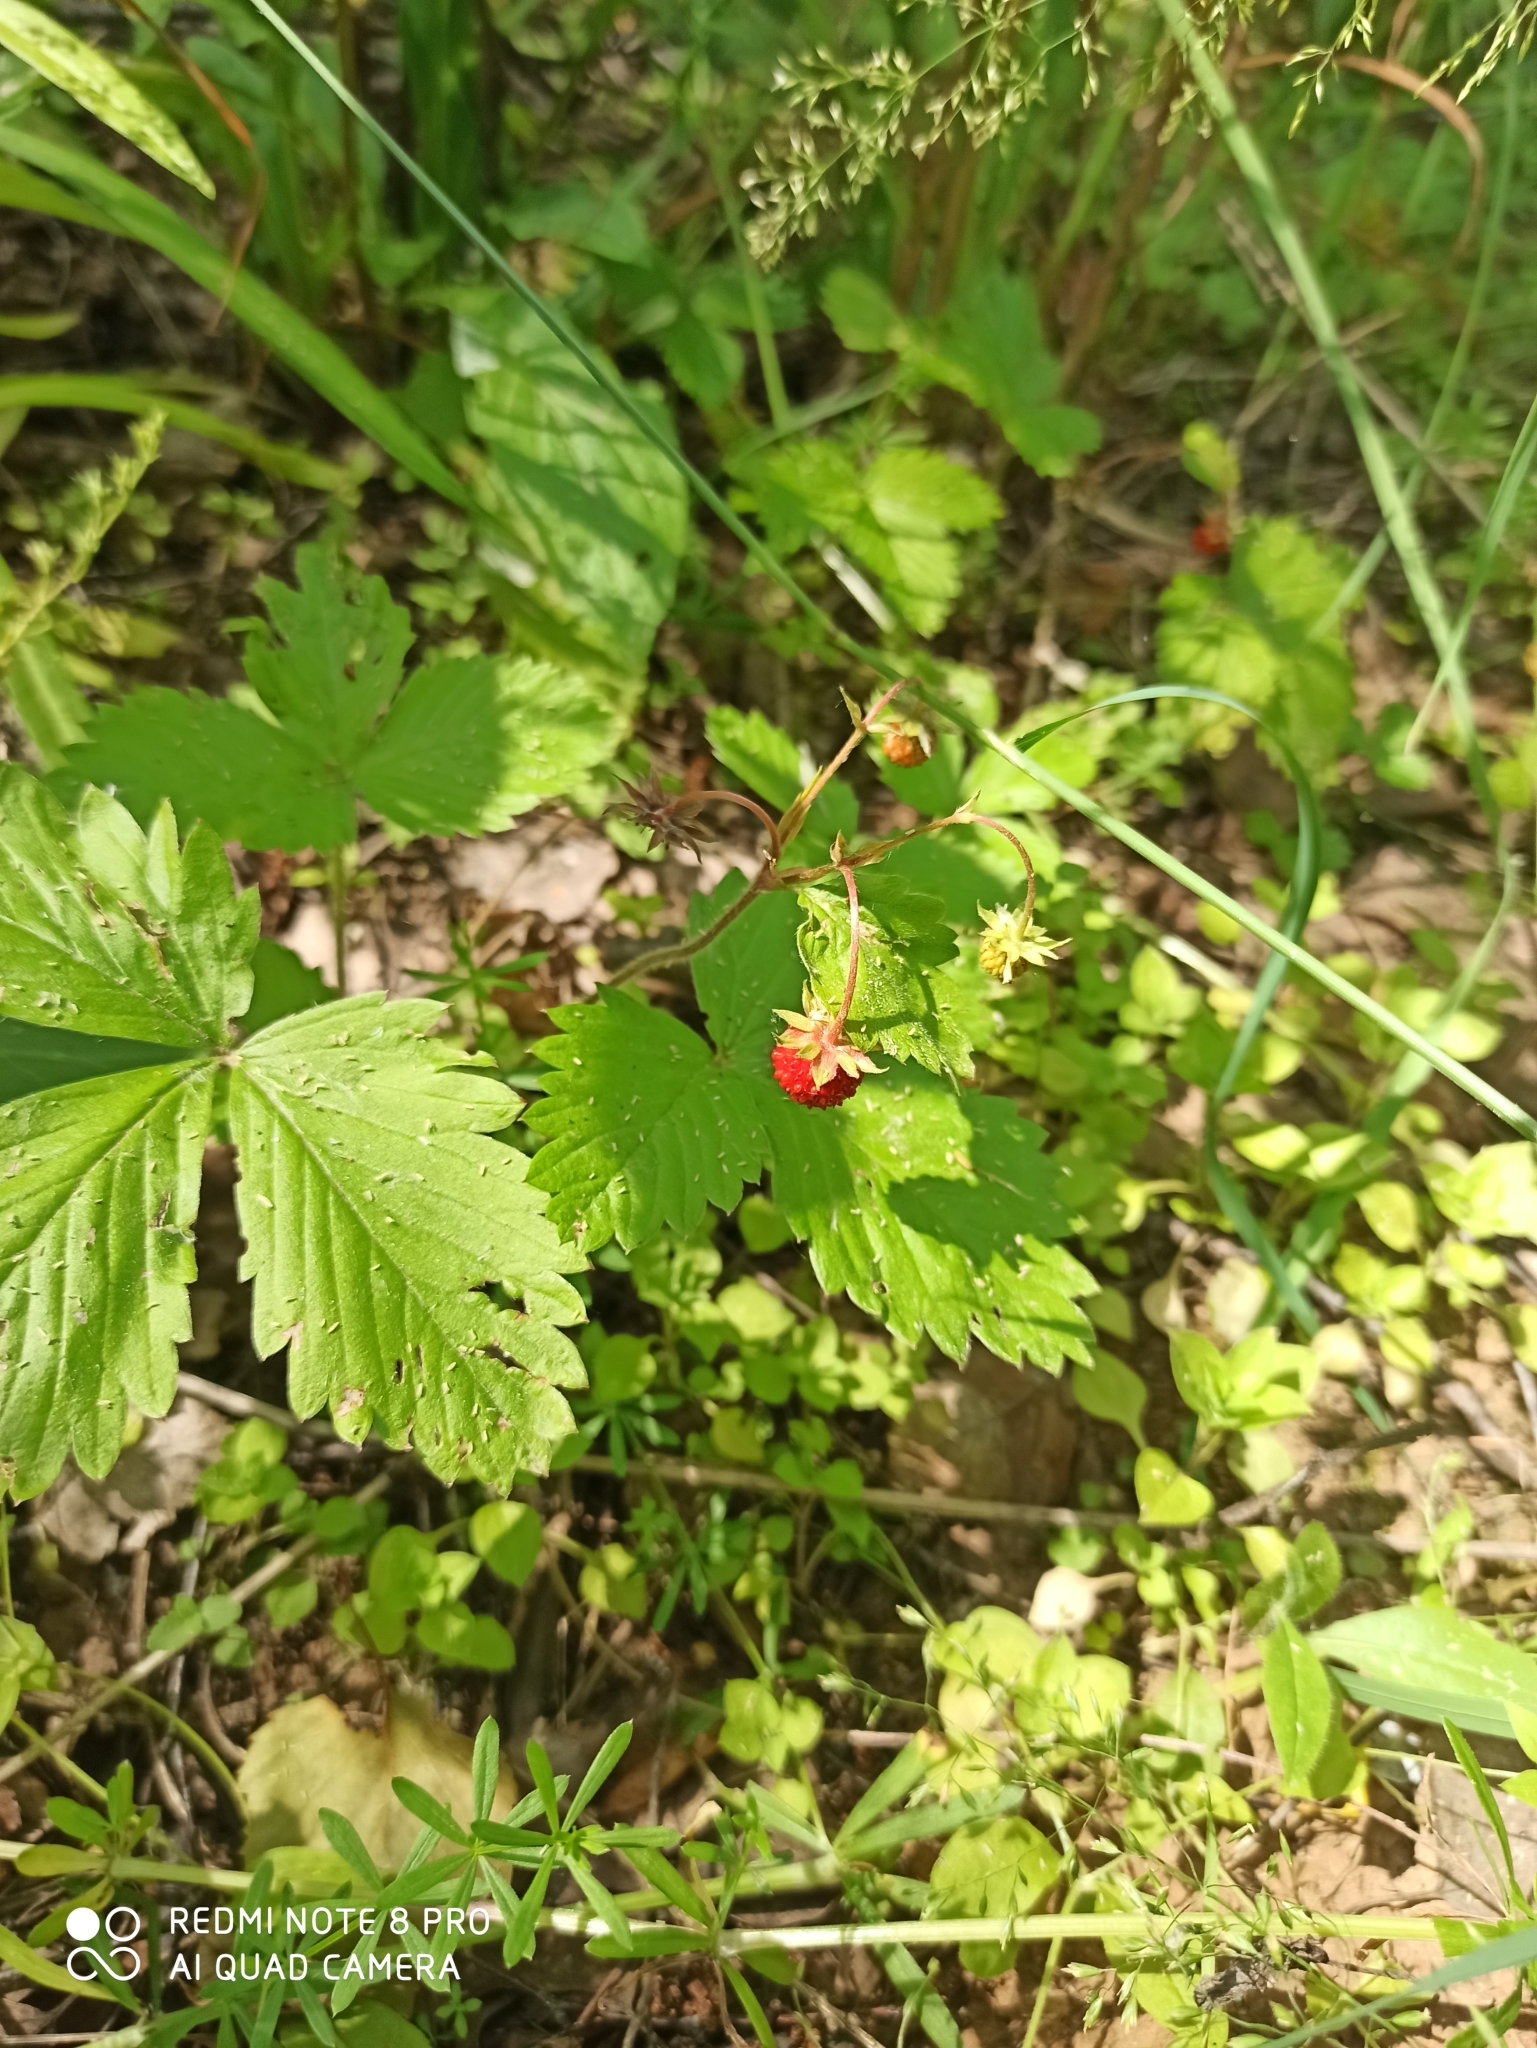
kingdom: Plantae
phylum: Tracheophyta
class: Magnoliopsida
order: Rosales
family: Rosaceae
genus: Fragaria
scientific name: Fragaria vesca
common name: Wild strawberry
